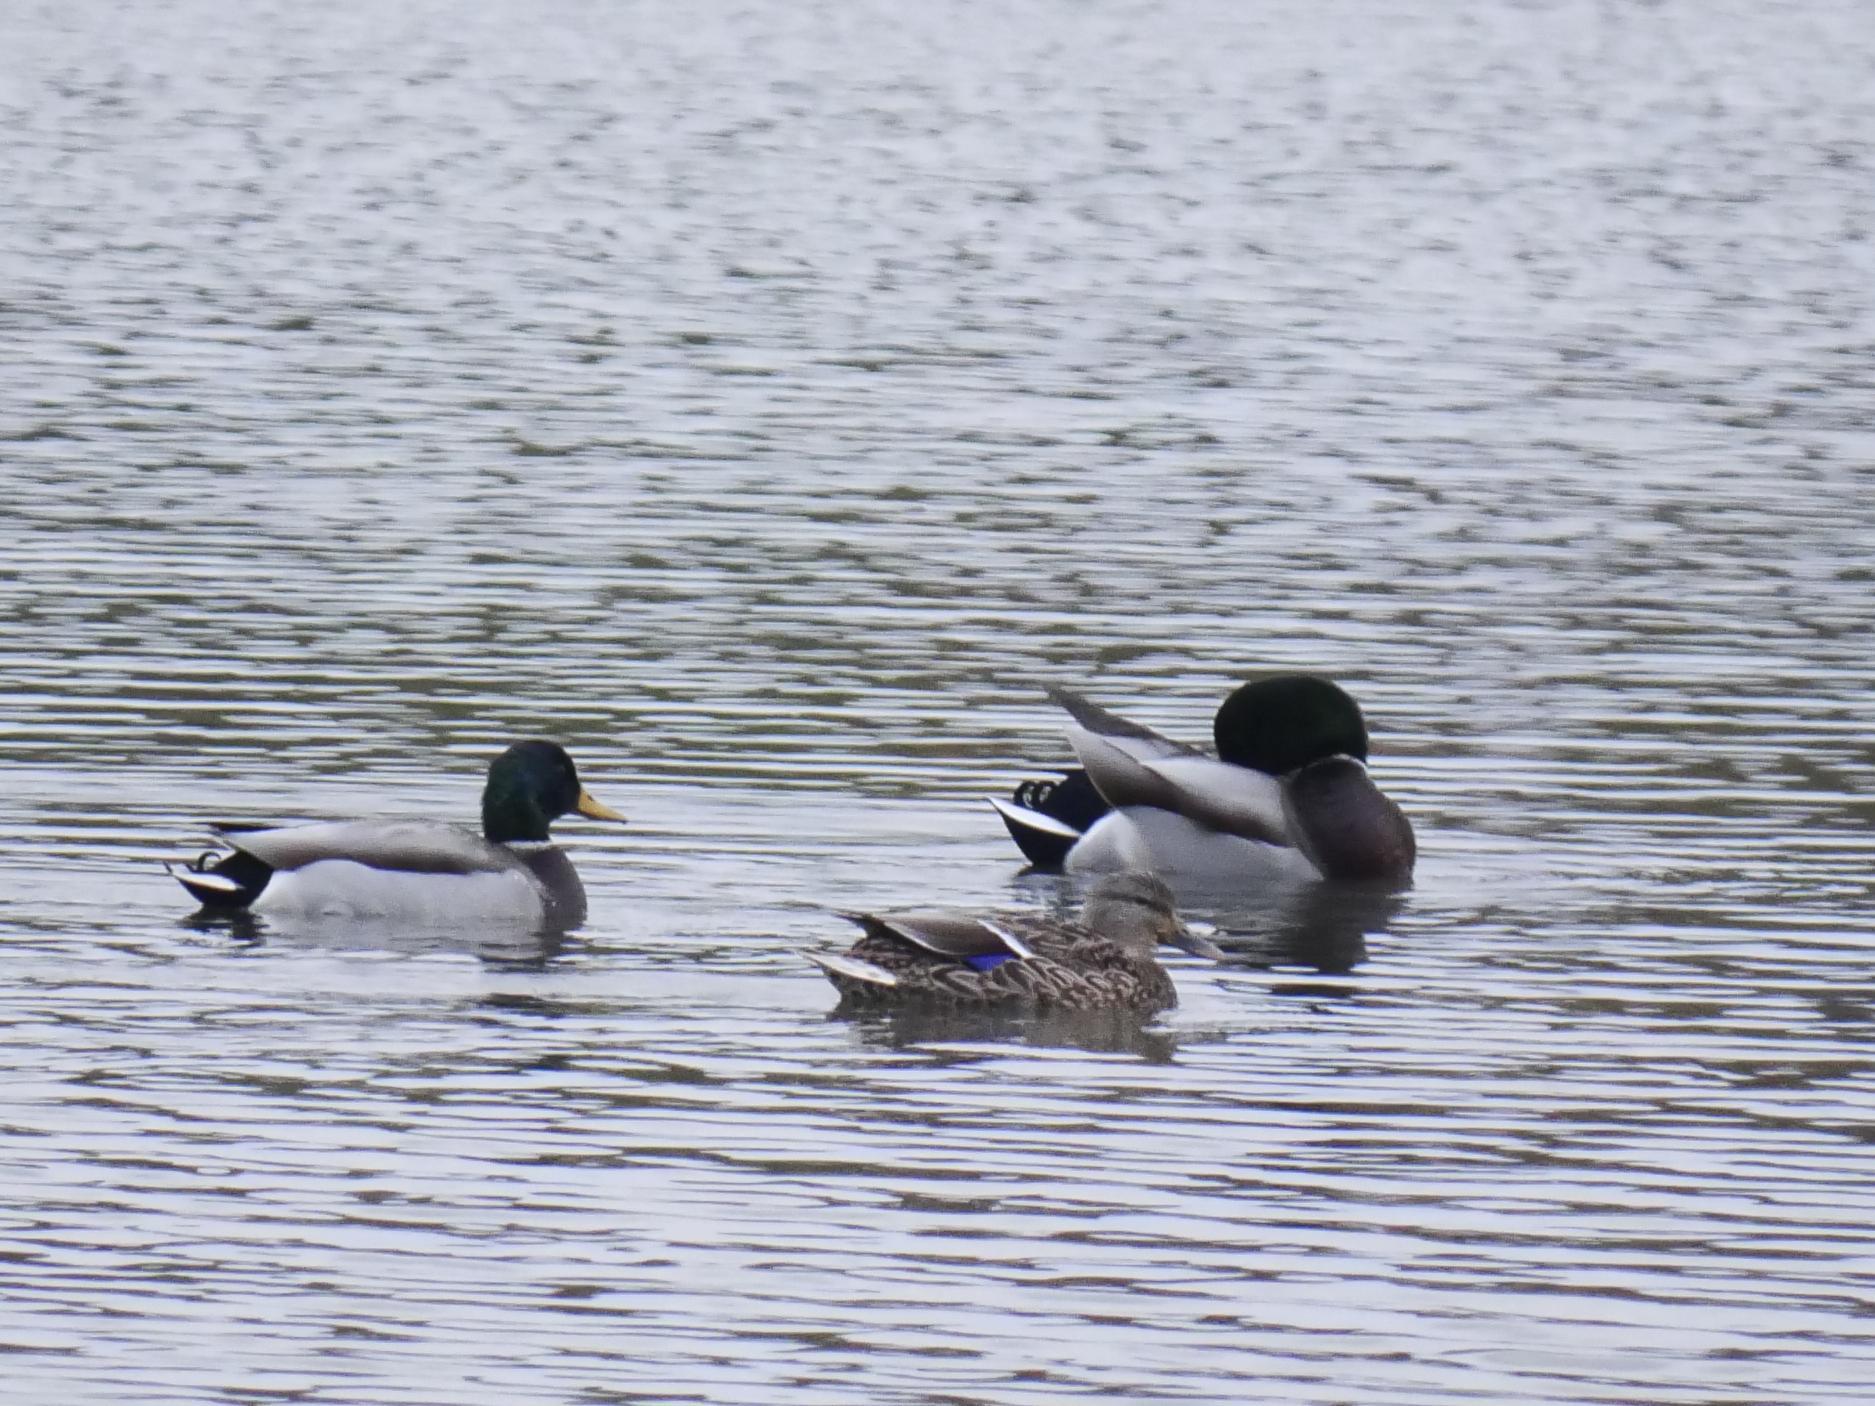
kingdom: Animalia
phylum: Chordata
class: Aves
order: Anseriformes
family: Anatidae
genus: Anas
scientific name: Anas platyrhynchos
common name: Mallard
